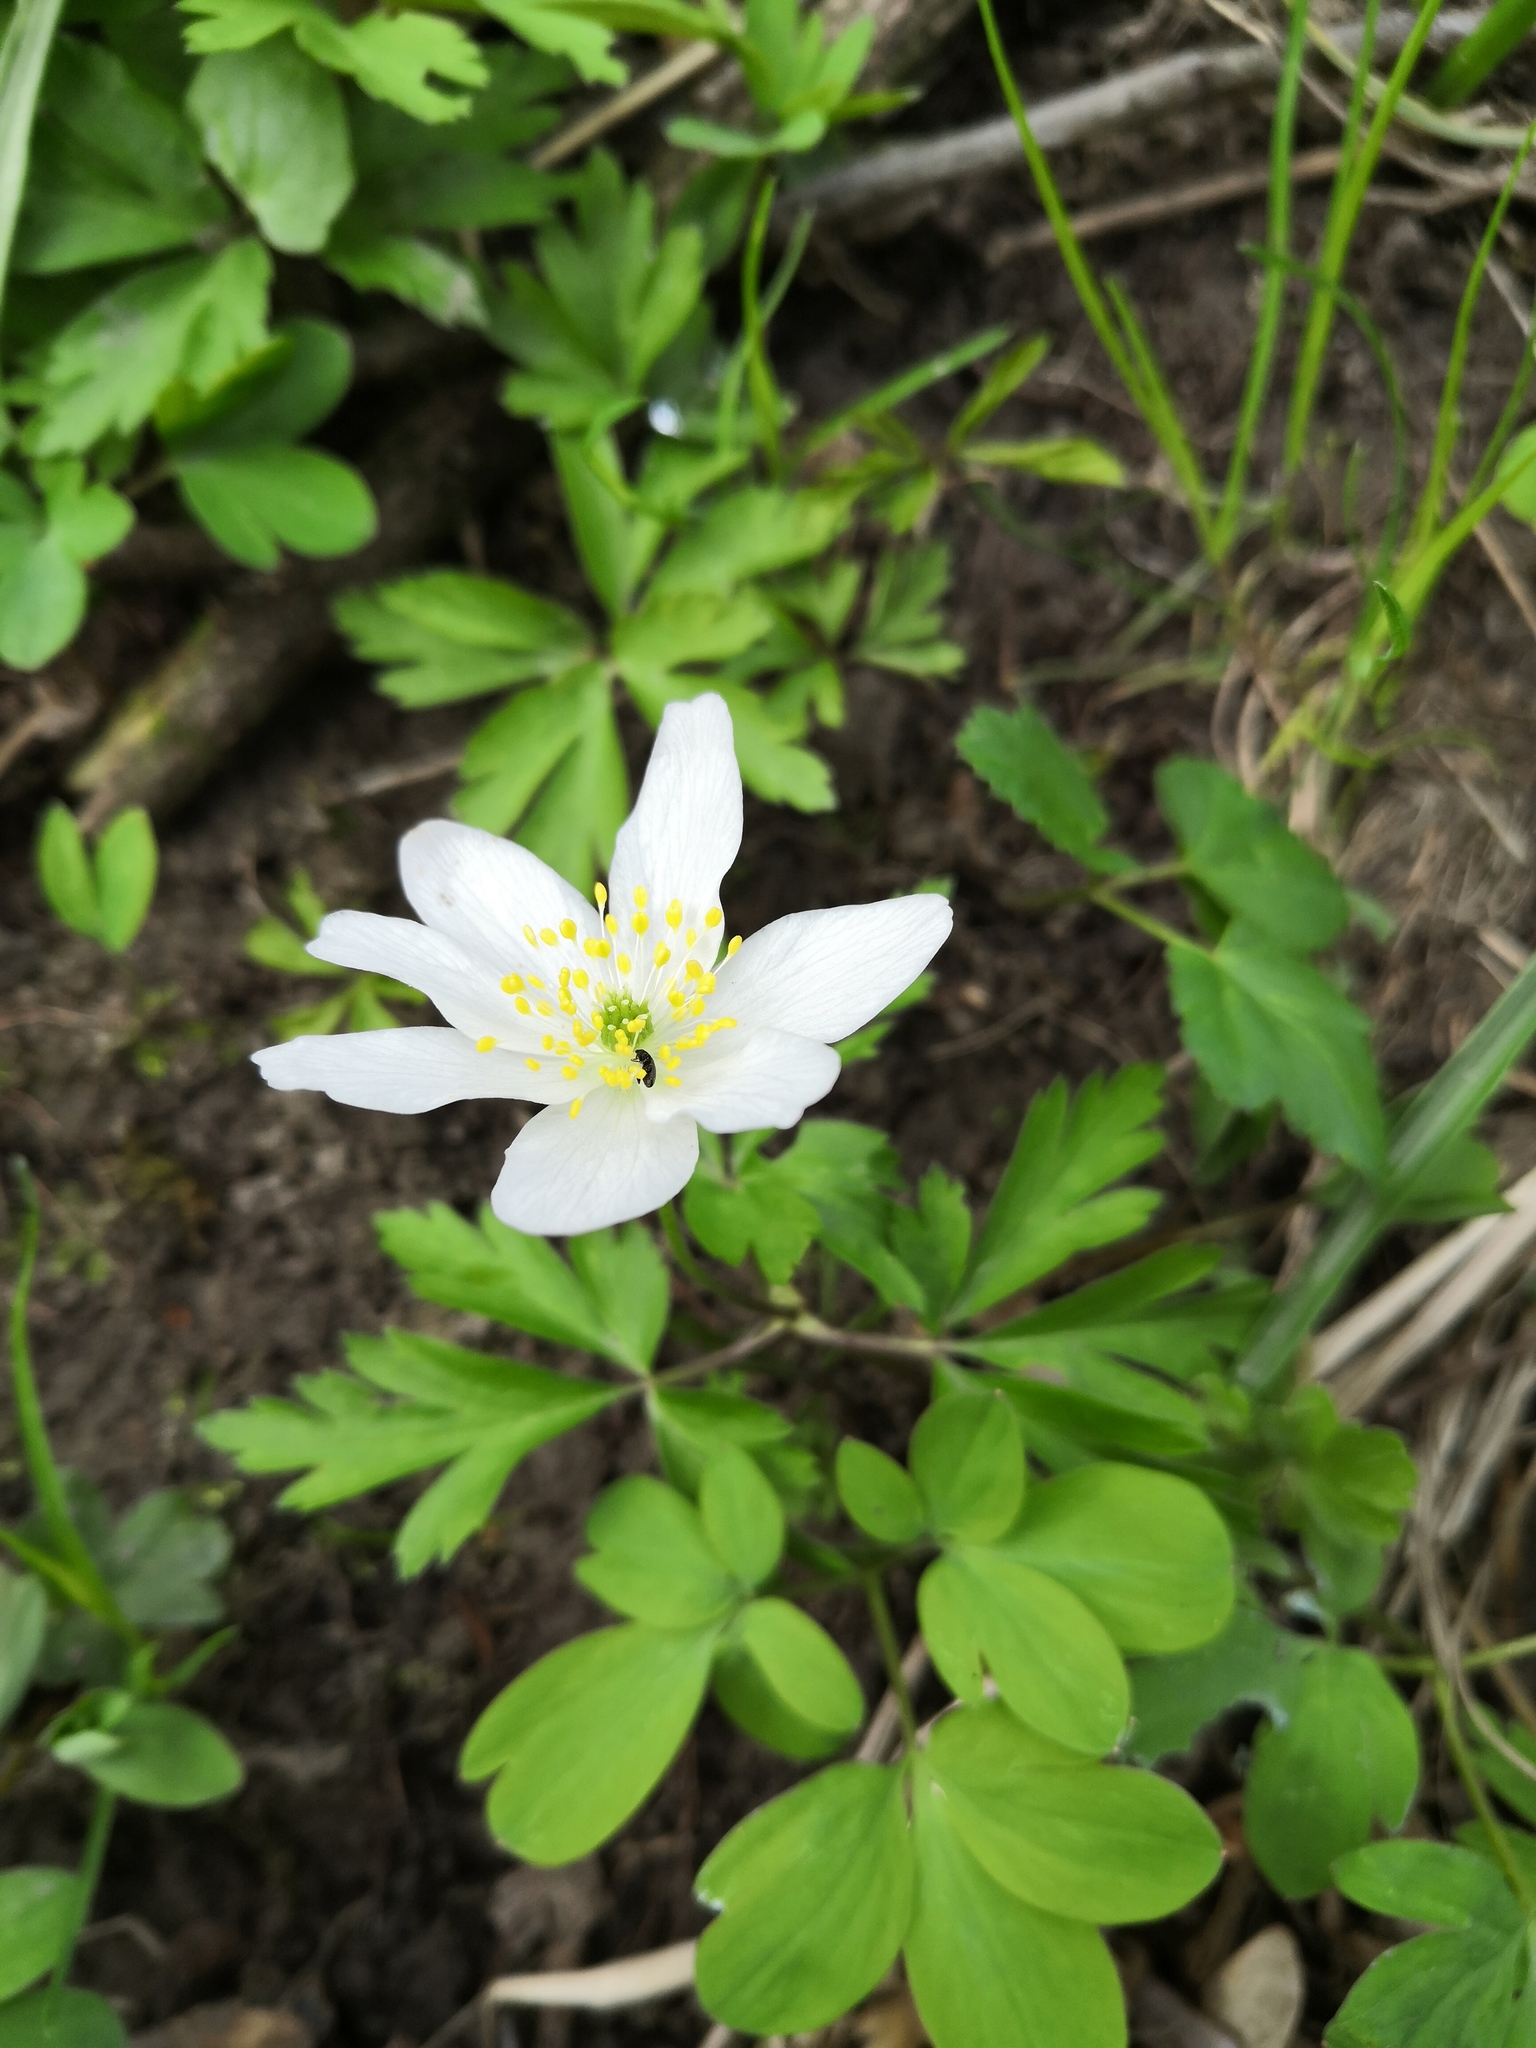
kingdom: Plantae
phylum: Tracheophyta
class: Magnoliopsida
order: Ranunculales
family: Ranunculaceae
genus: Anemone
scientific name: Anemone nemorosa
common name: Wood anemone
